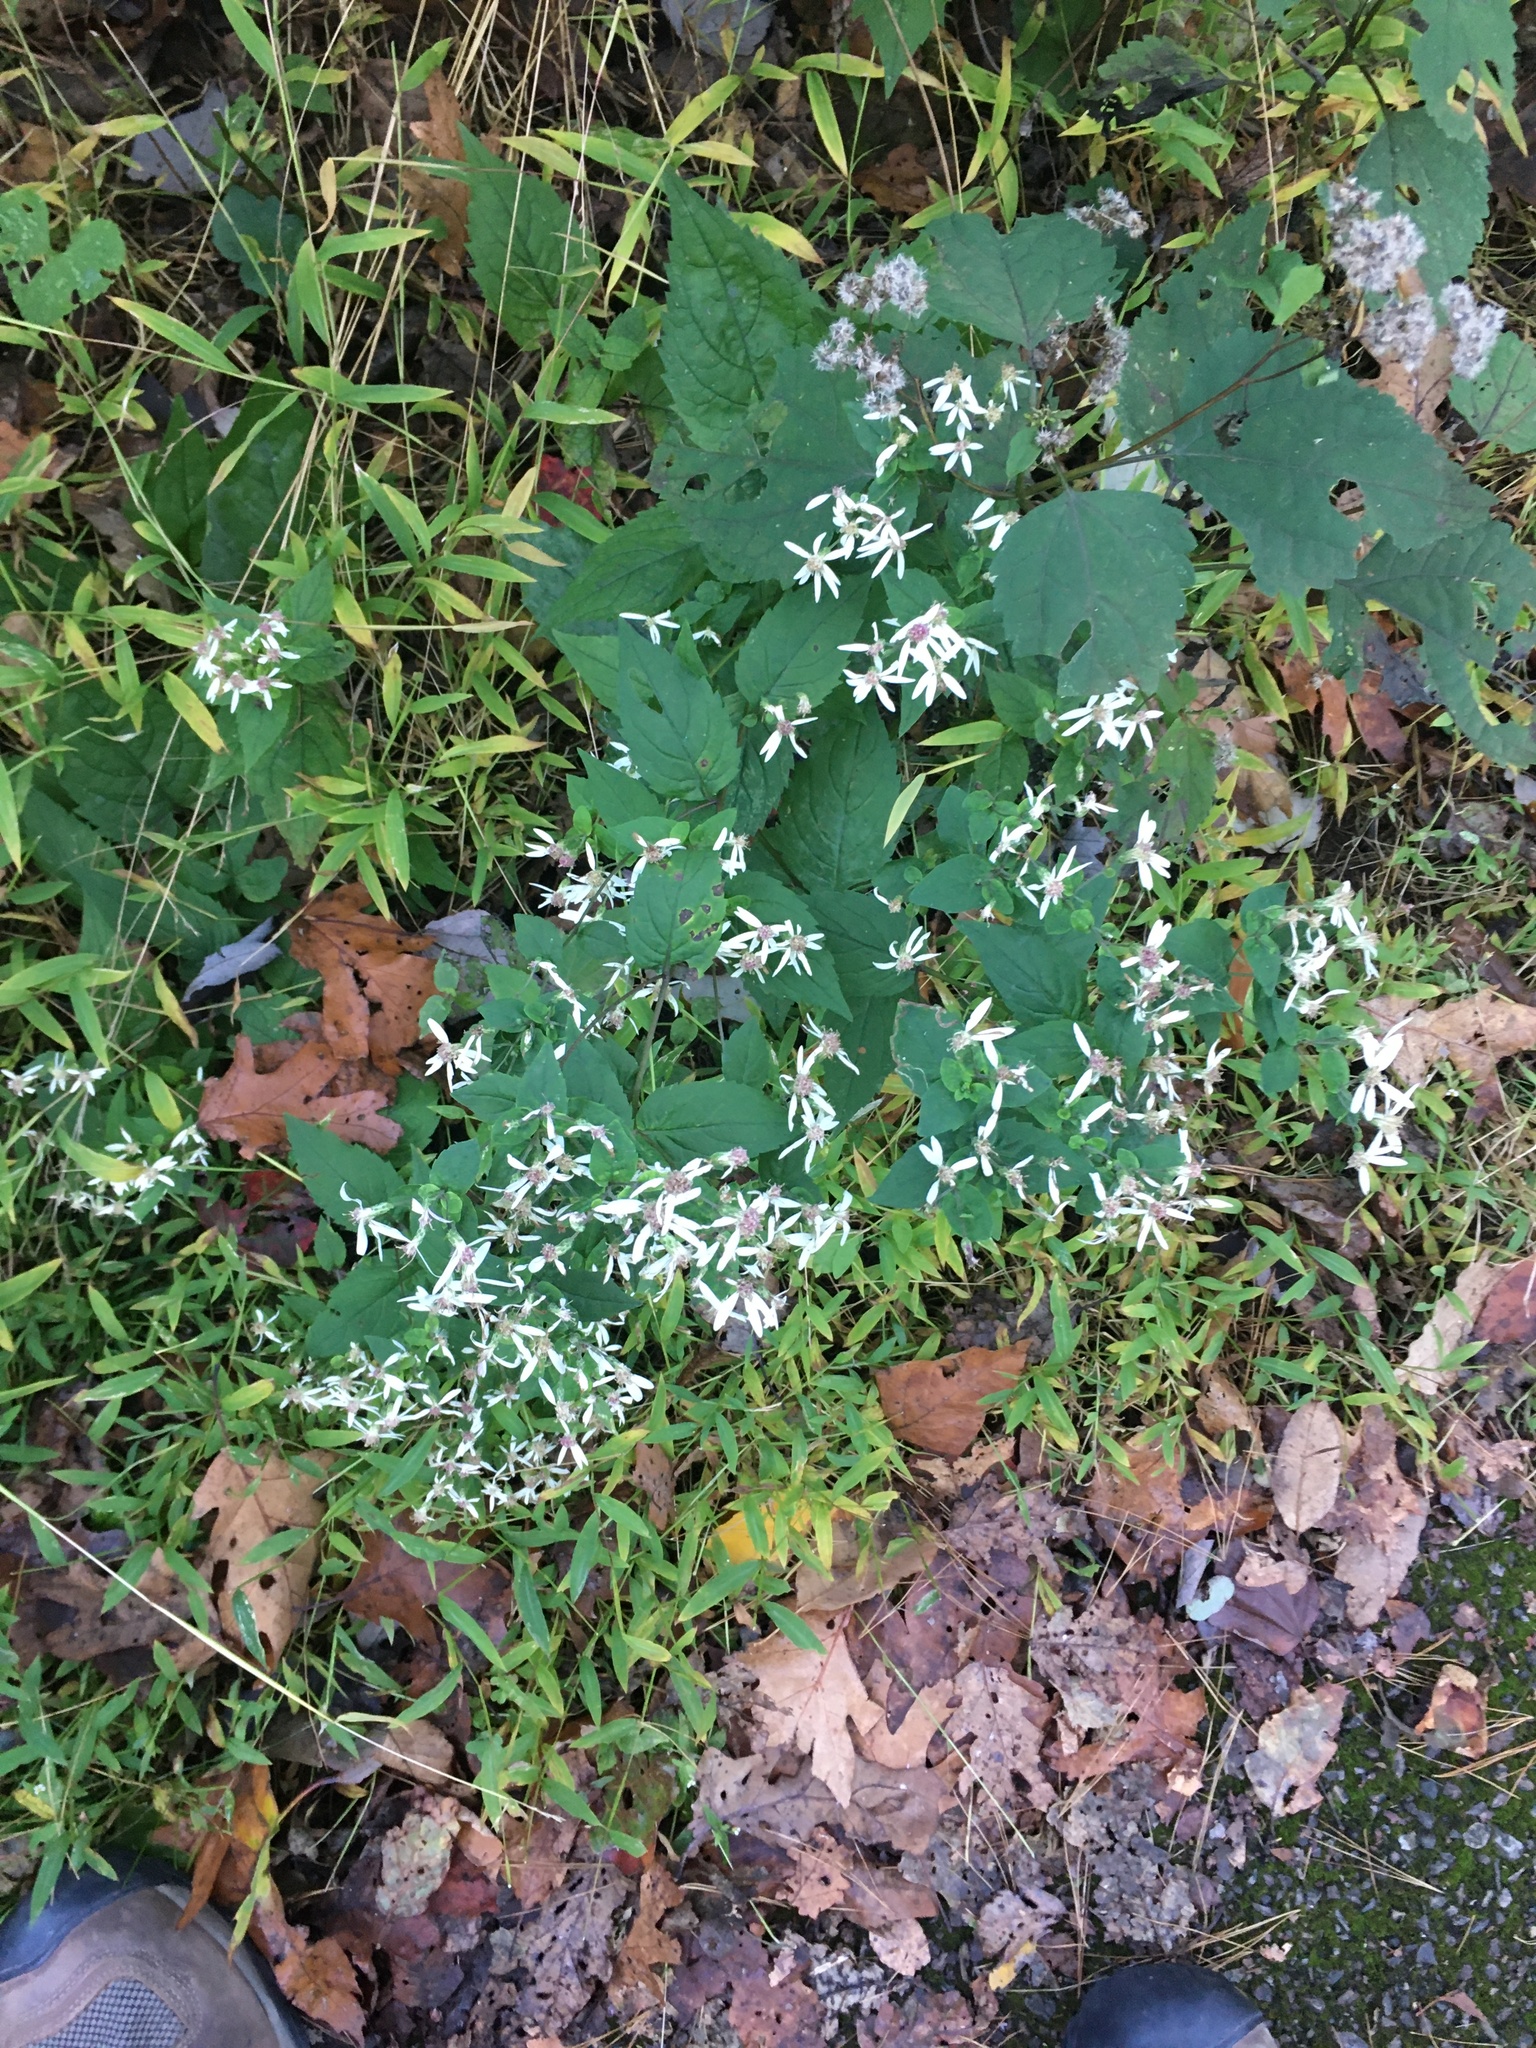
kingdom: Plantae
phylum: Tracheophyta
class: Magnoliopsida
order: Asterales
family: Asteraceae
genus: Eurybia
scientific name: Eurybia divaricata
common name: White wood aster
